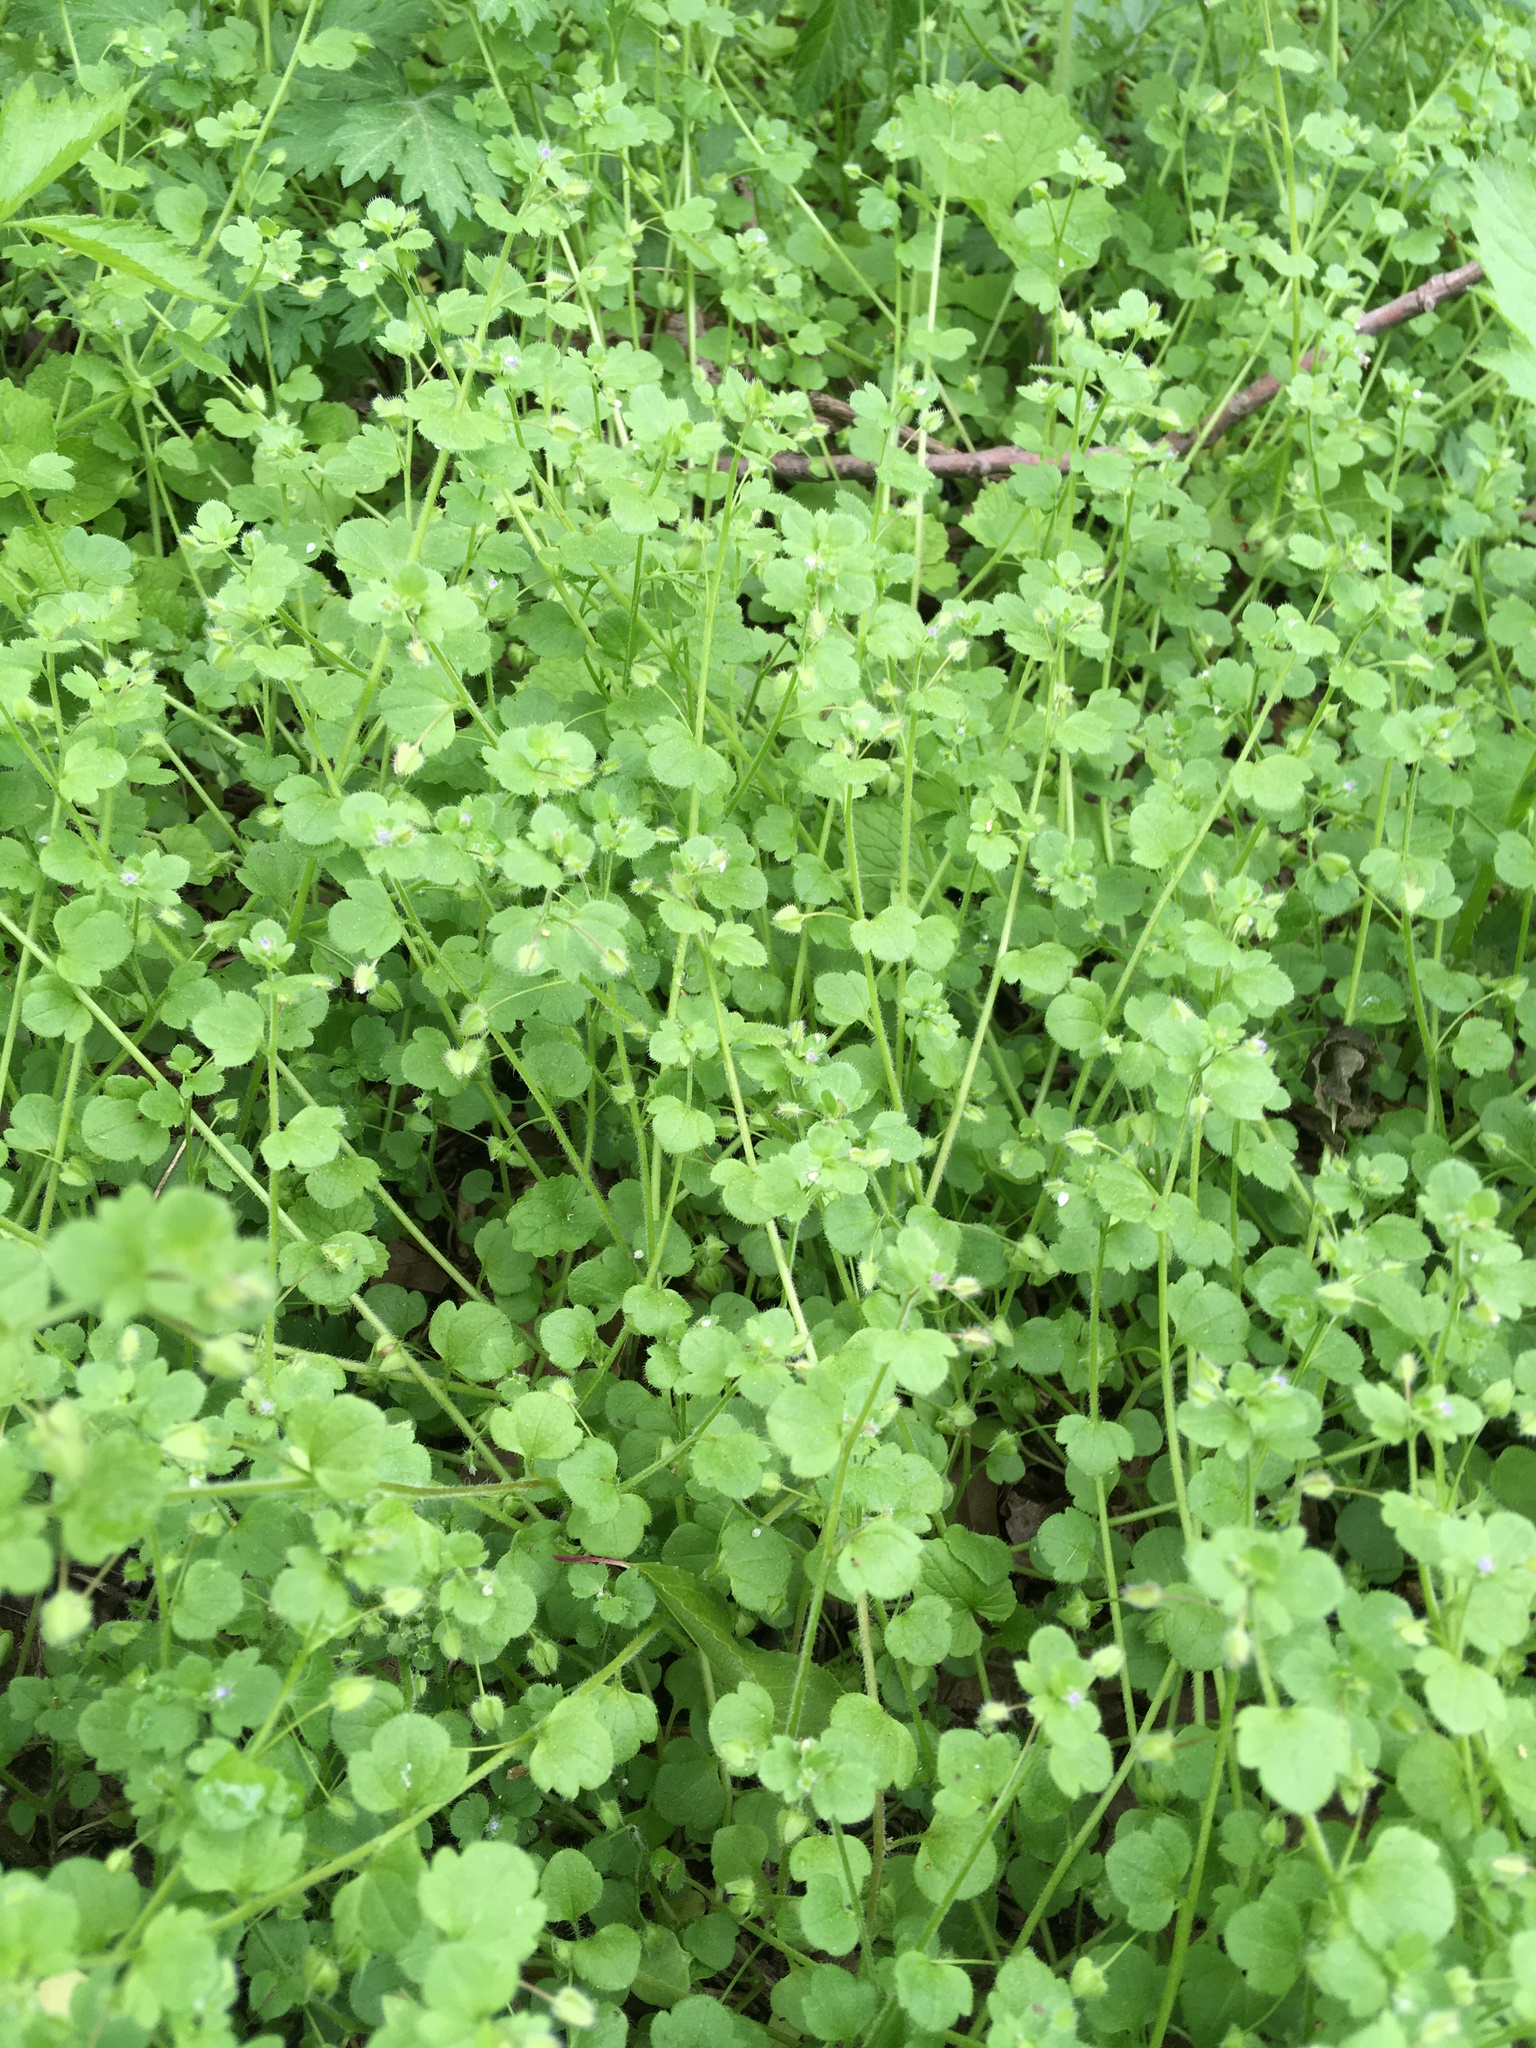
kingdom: Plantae
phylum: Tracheophyta
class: Magnoliopsida
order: Lamiales
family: Plantaginaceae
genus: Veronica
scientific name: Veronica hederifolia
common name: Ivy-leaved speedwell
